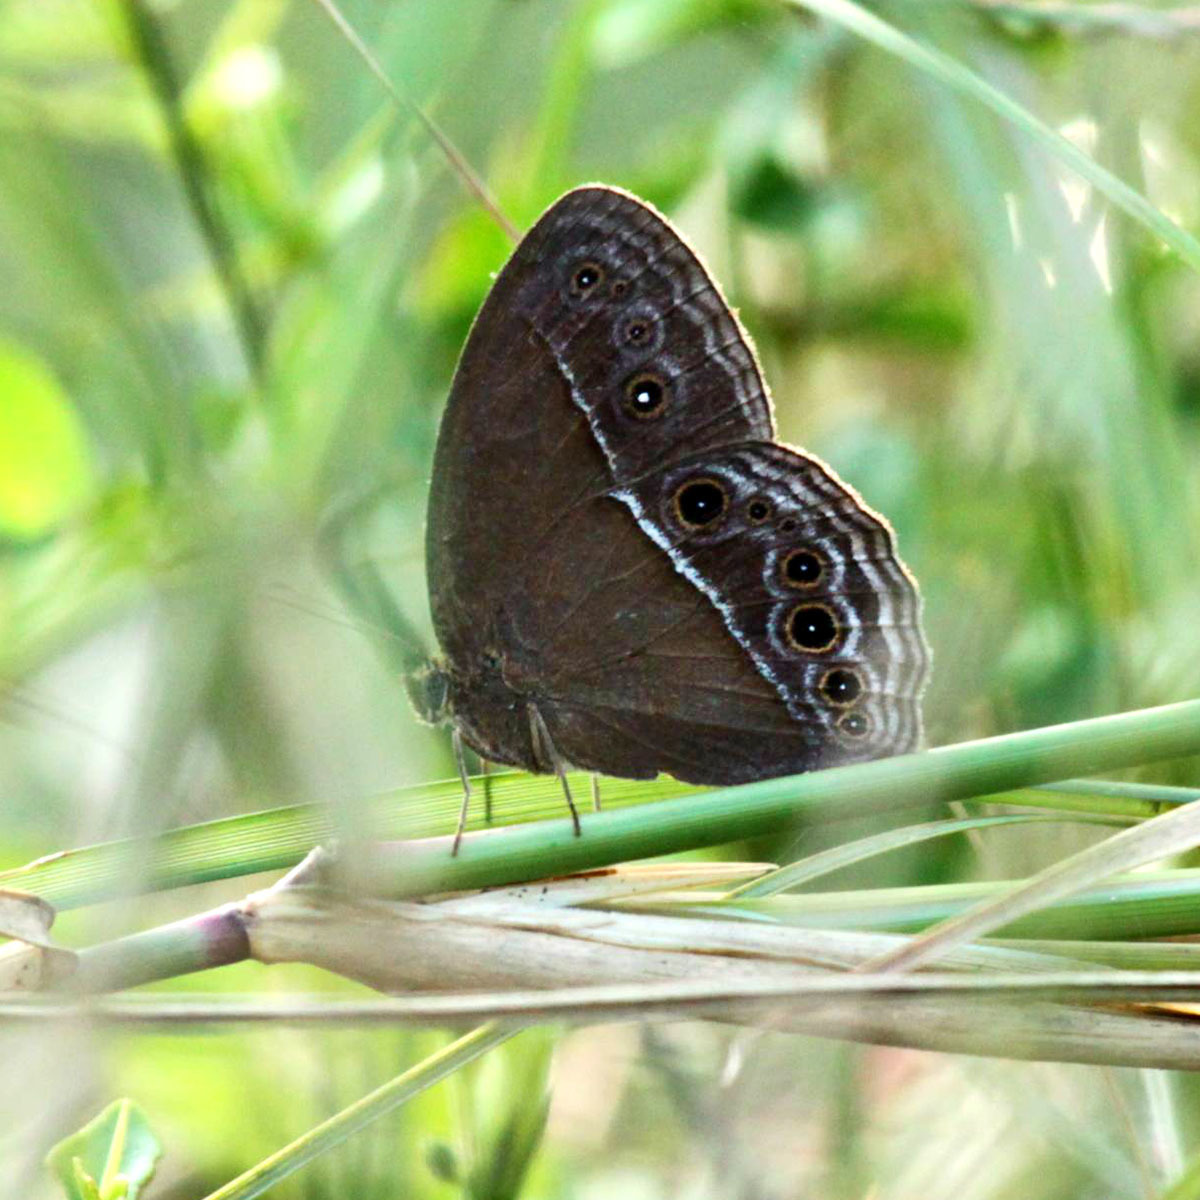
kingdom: Animalia
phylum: Arthropoda
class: Insecta
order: Lepidoptera
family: Nymphalidae
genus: Mycalesis
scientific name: Mycalesis perseus
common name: Dingy bushbrown
